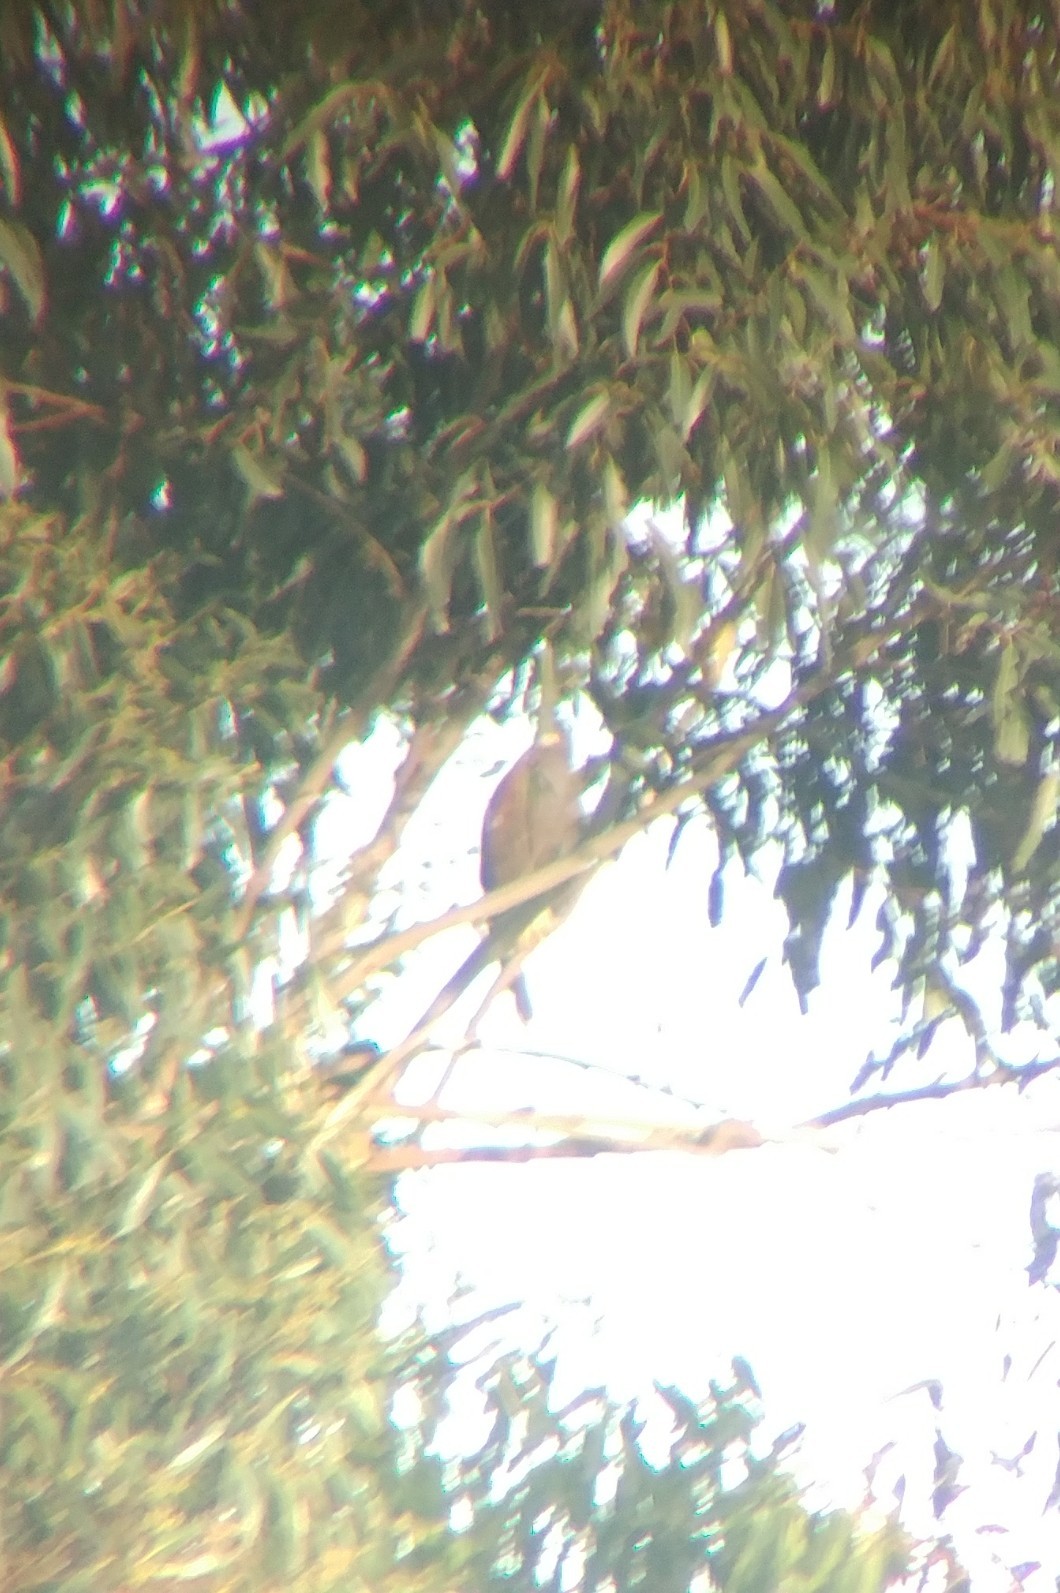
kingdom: Animalia
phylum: Chordata
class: Aves
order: Accipitriformes
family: Accipitridae
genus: Parabuteo
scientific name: Parabuteo unicinctus
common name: Harris's hawk
